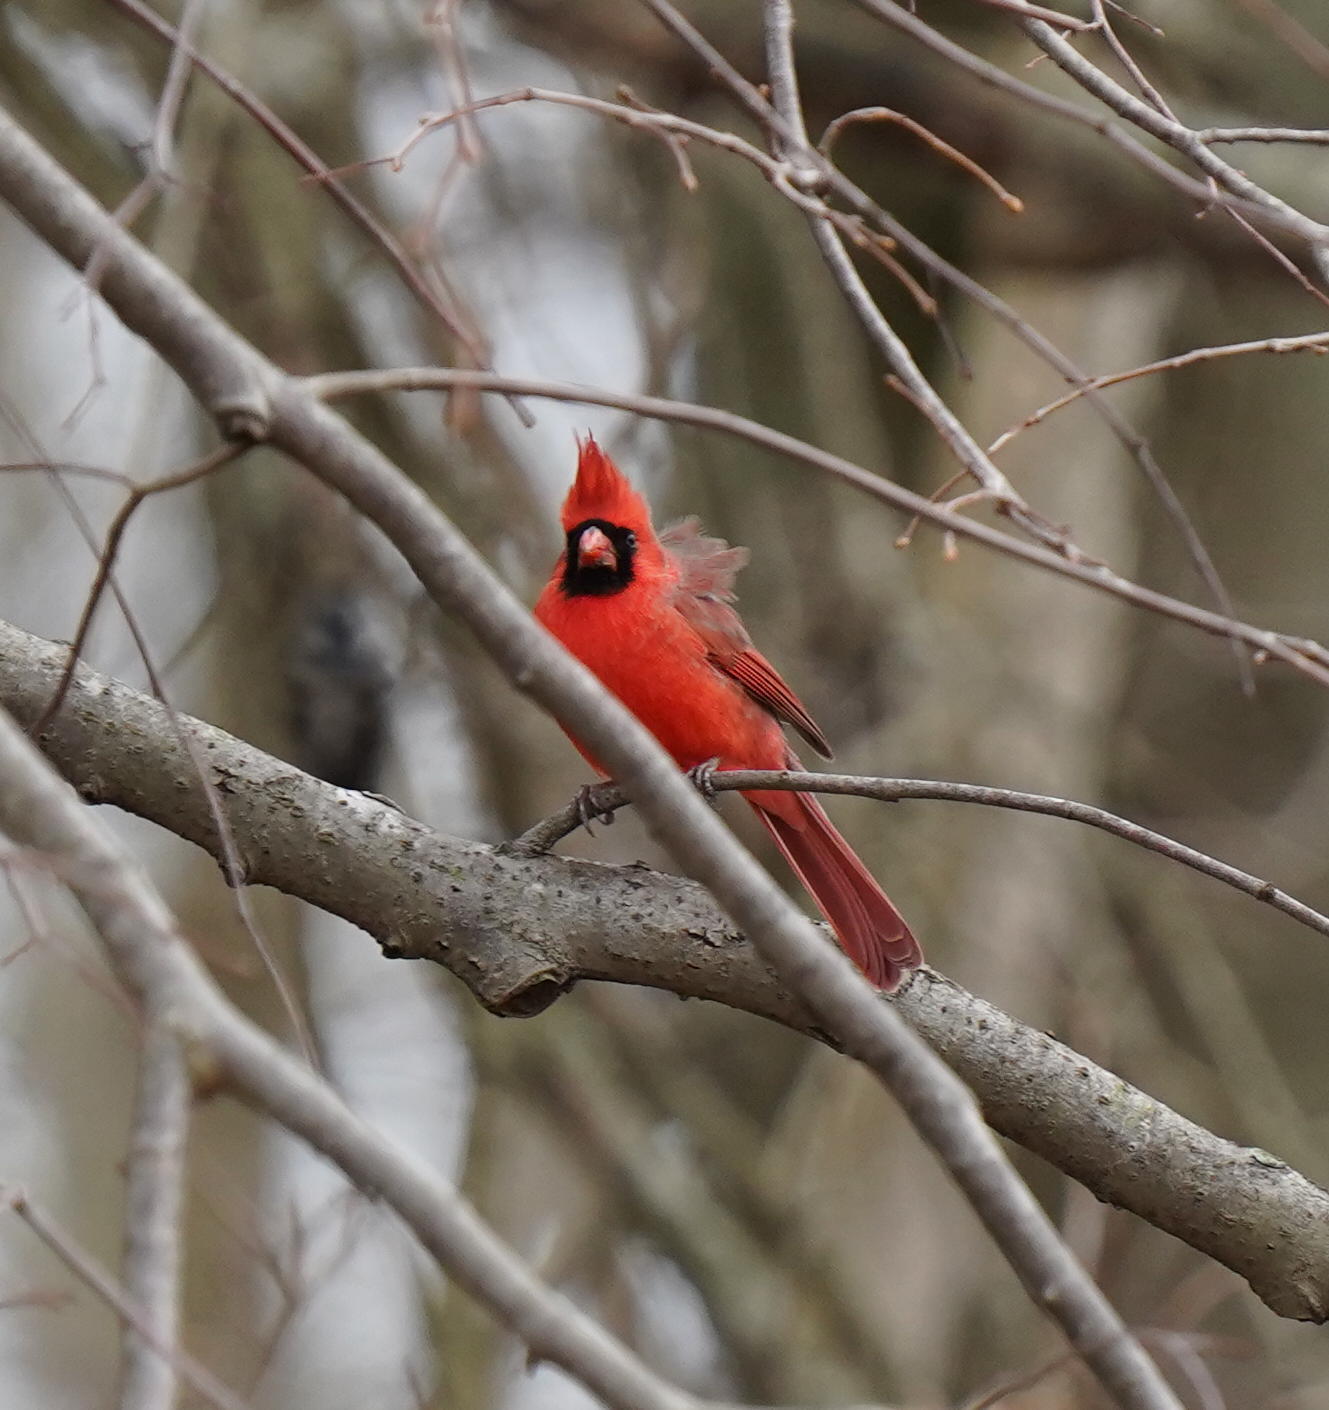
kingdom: Animalia
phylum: Chordata
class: Aves
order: Passeriformes
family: Cardinalidae
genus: Cardinalis
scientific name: Cardinalis cardinalis
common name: Northern cardinal
